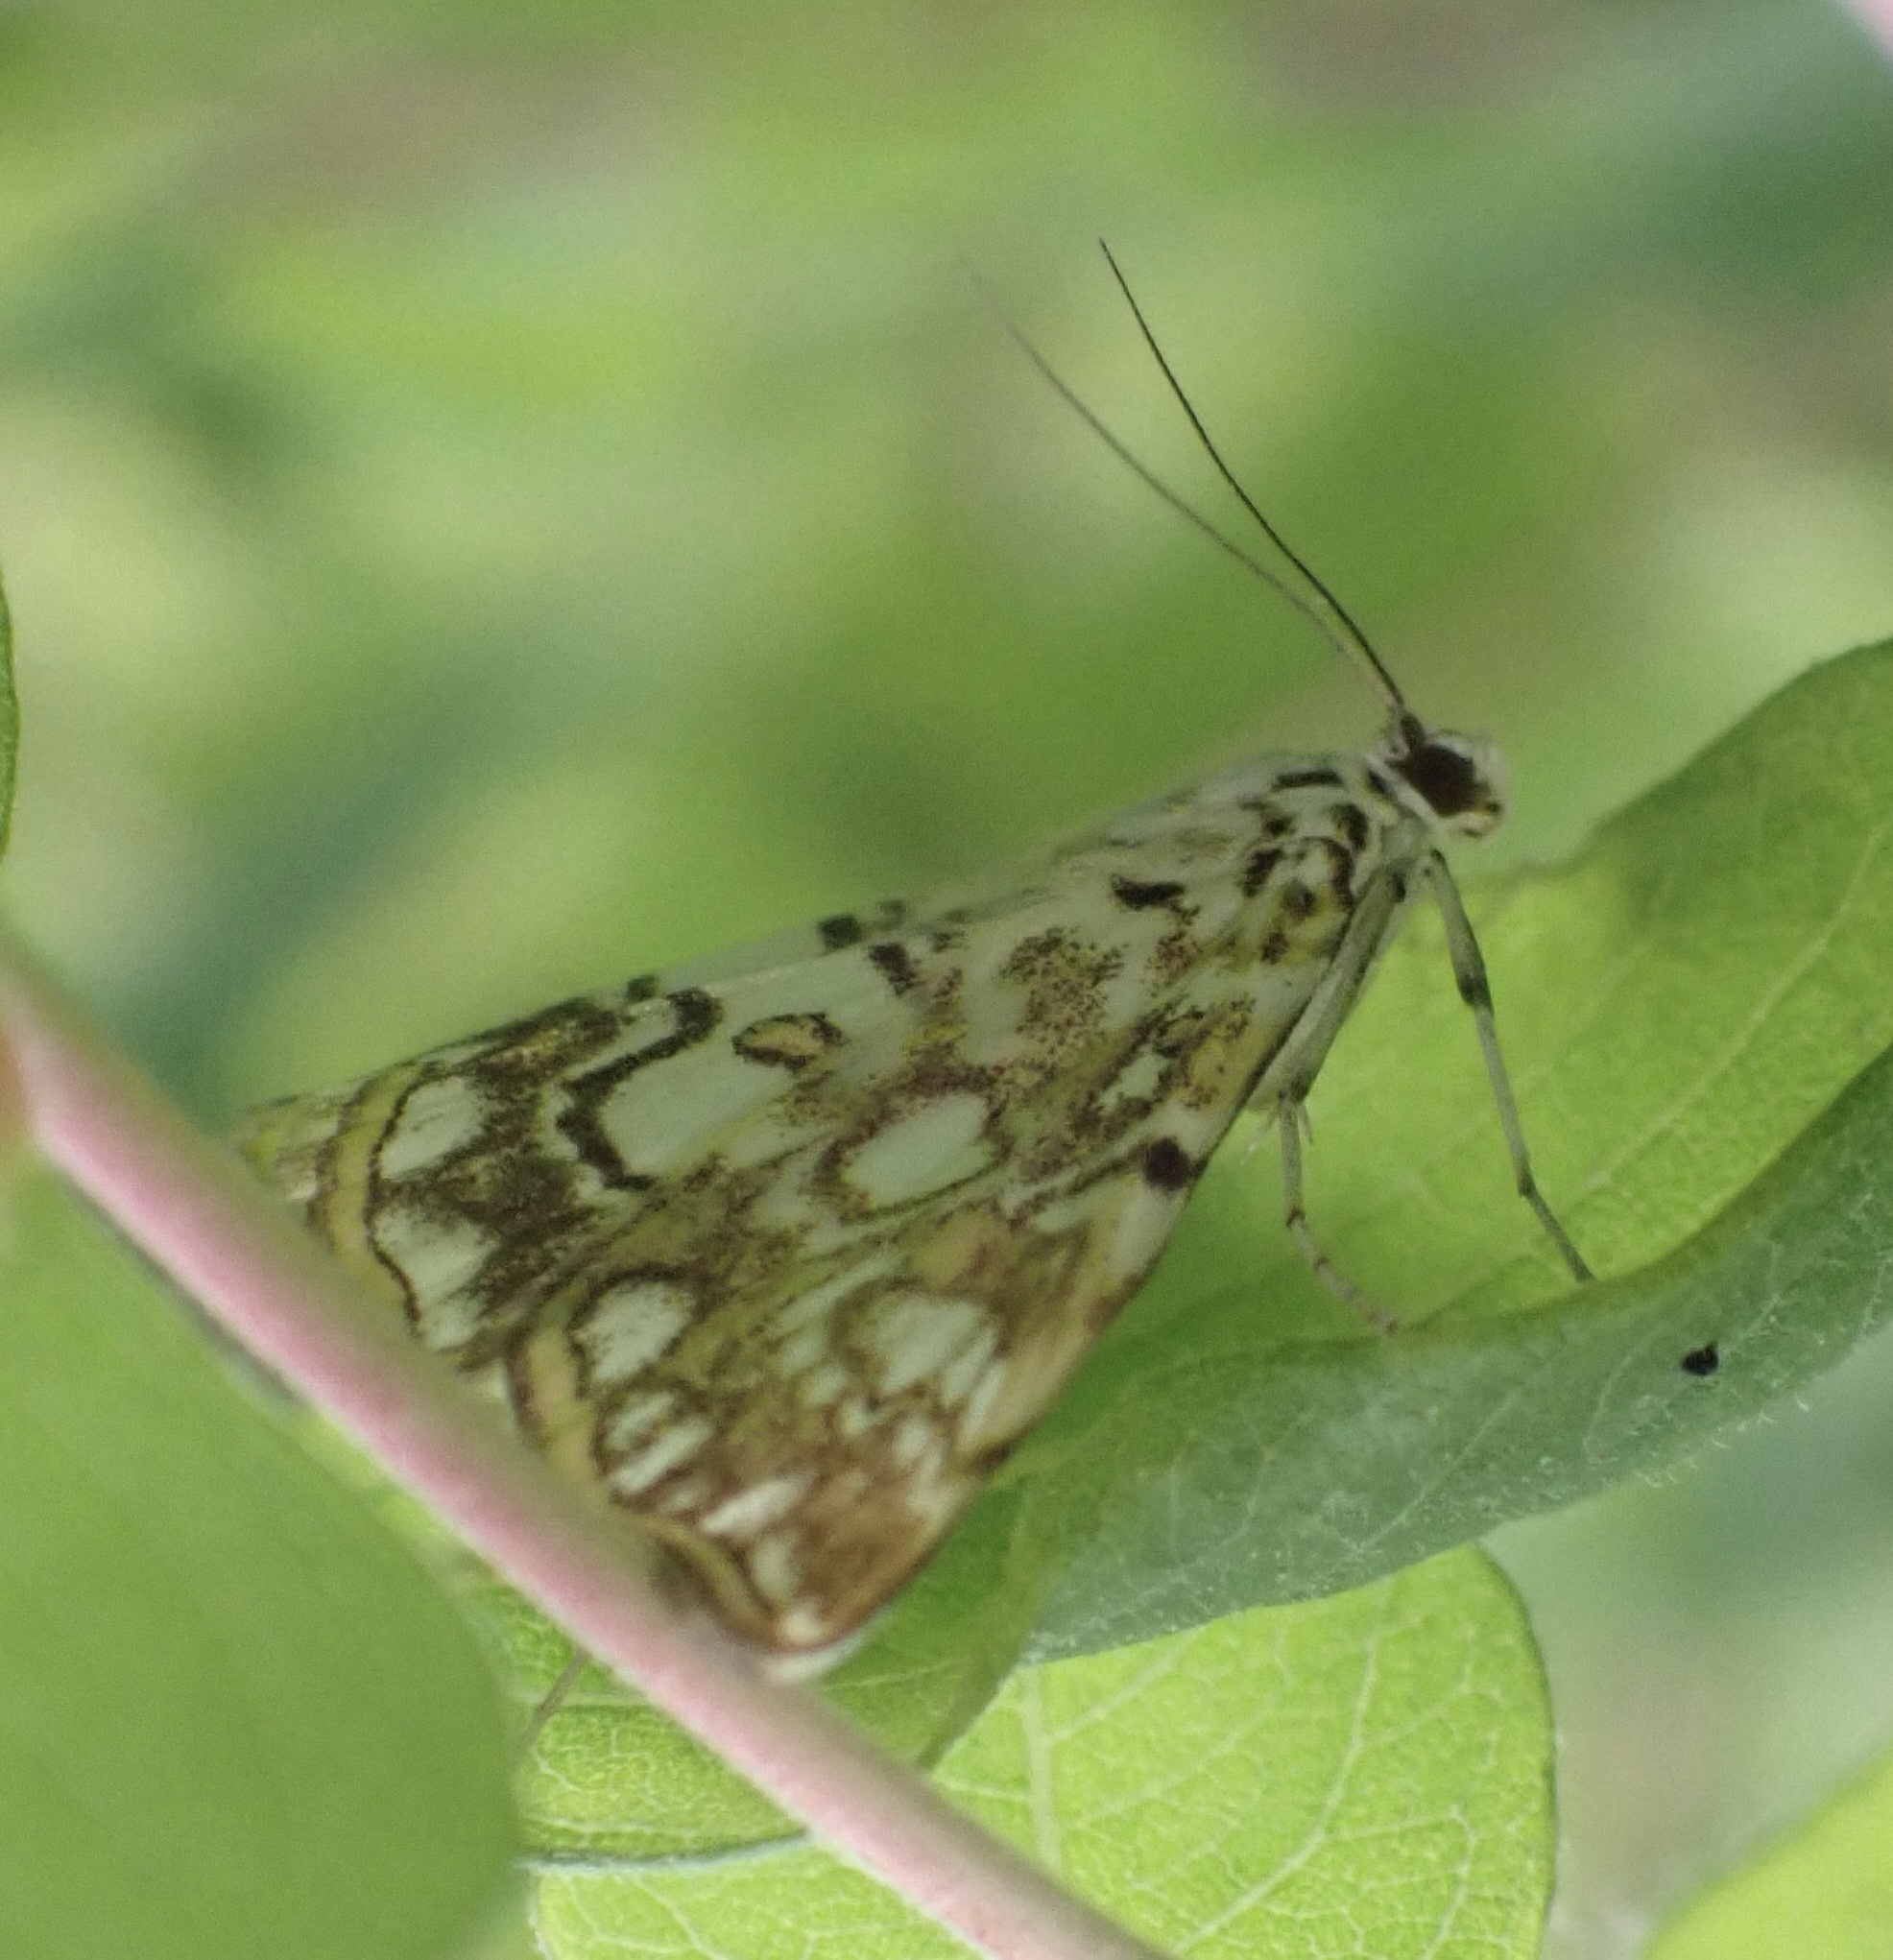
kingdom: Animalia
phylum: Arthropoda
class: Insecta
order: Lepidoptera
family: Crambidae
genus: Elophila
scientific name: Elophila nymphaeata
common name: Brown china-mark
